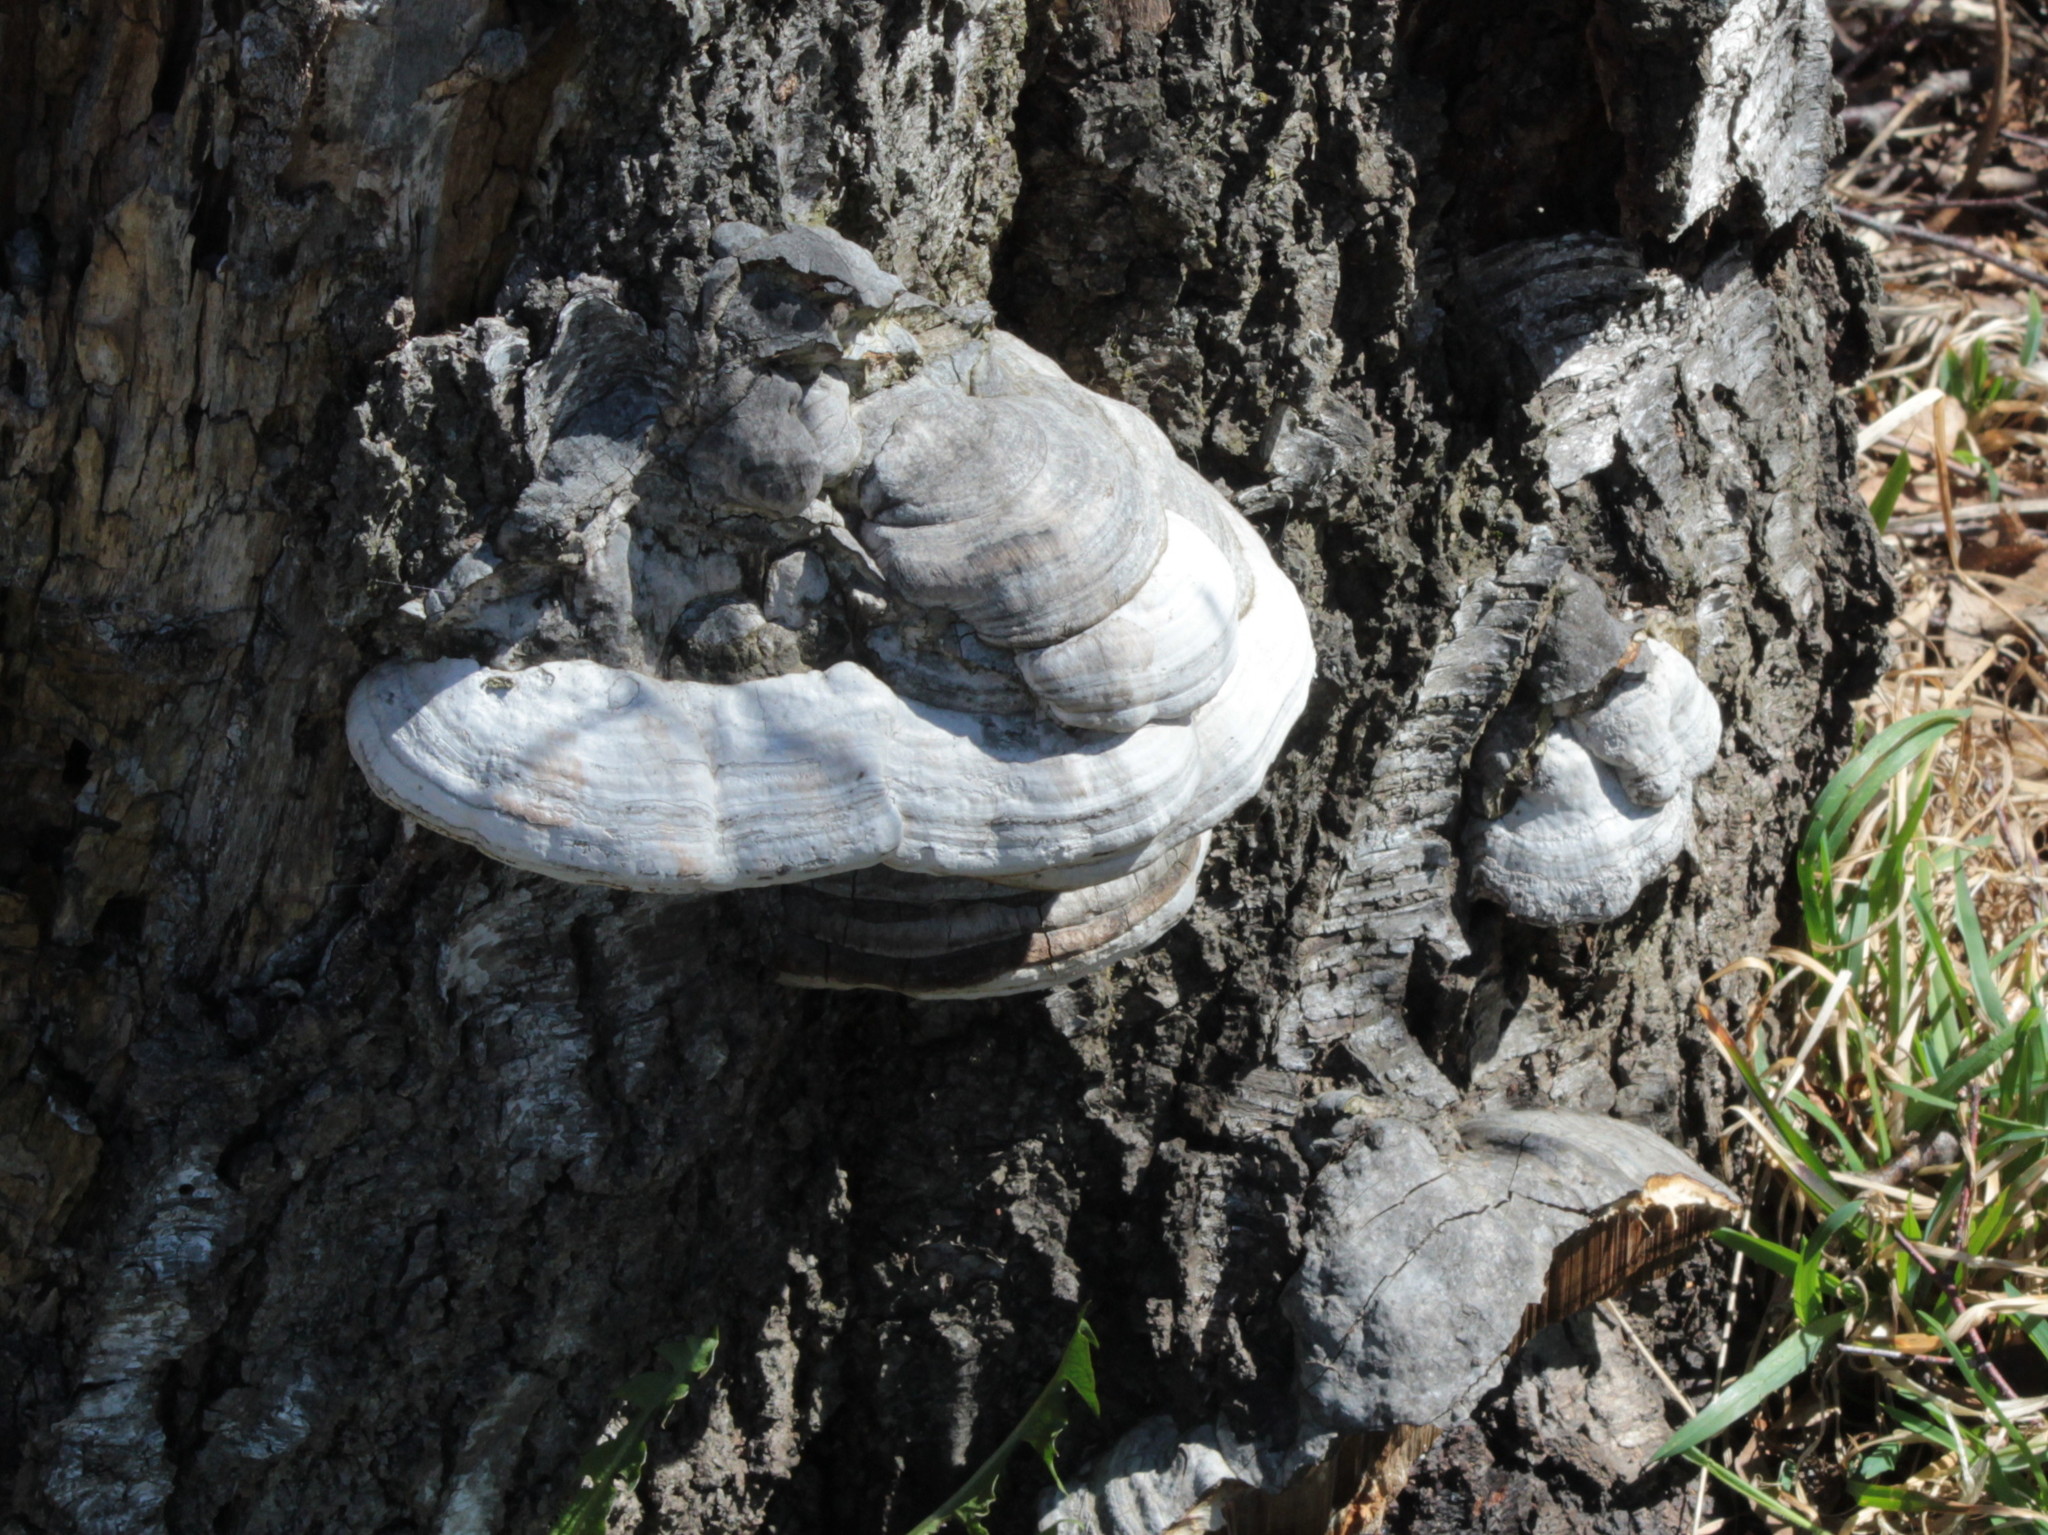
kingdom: Fungi
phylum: Basidiomycota
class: Agaricomycetes
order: Polyporales
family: Polyporaceae
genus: Fomes
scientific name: Fomes fomentarius
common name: Hoof fungus
